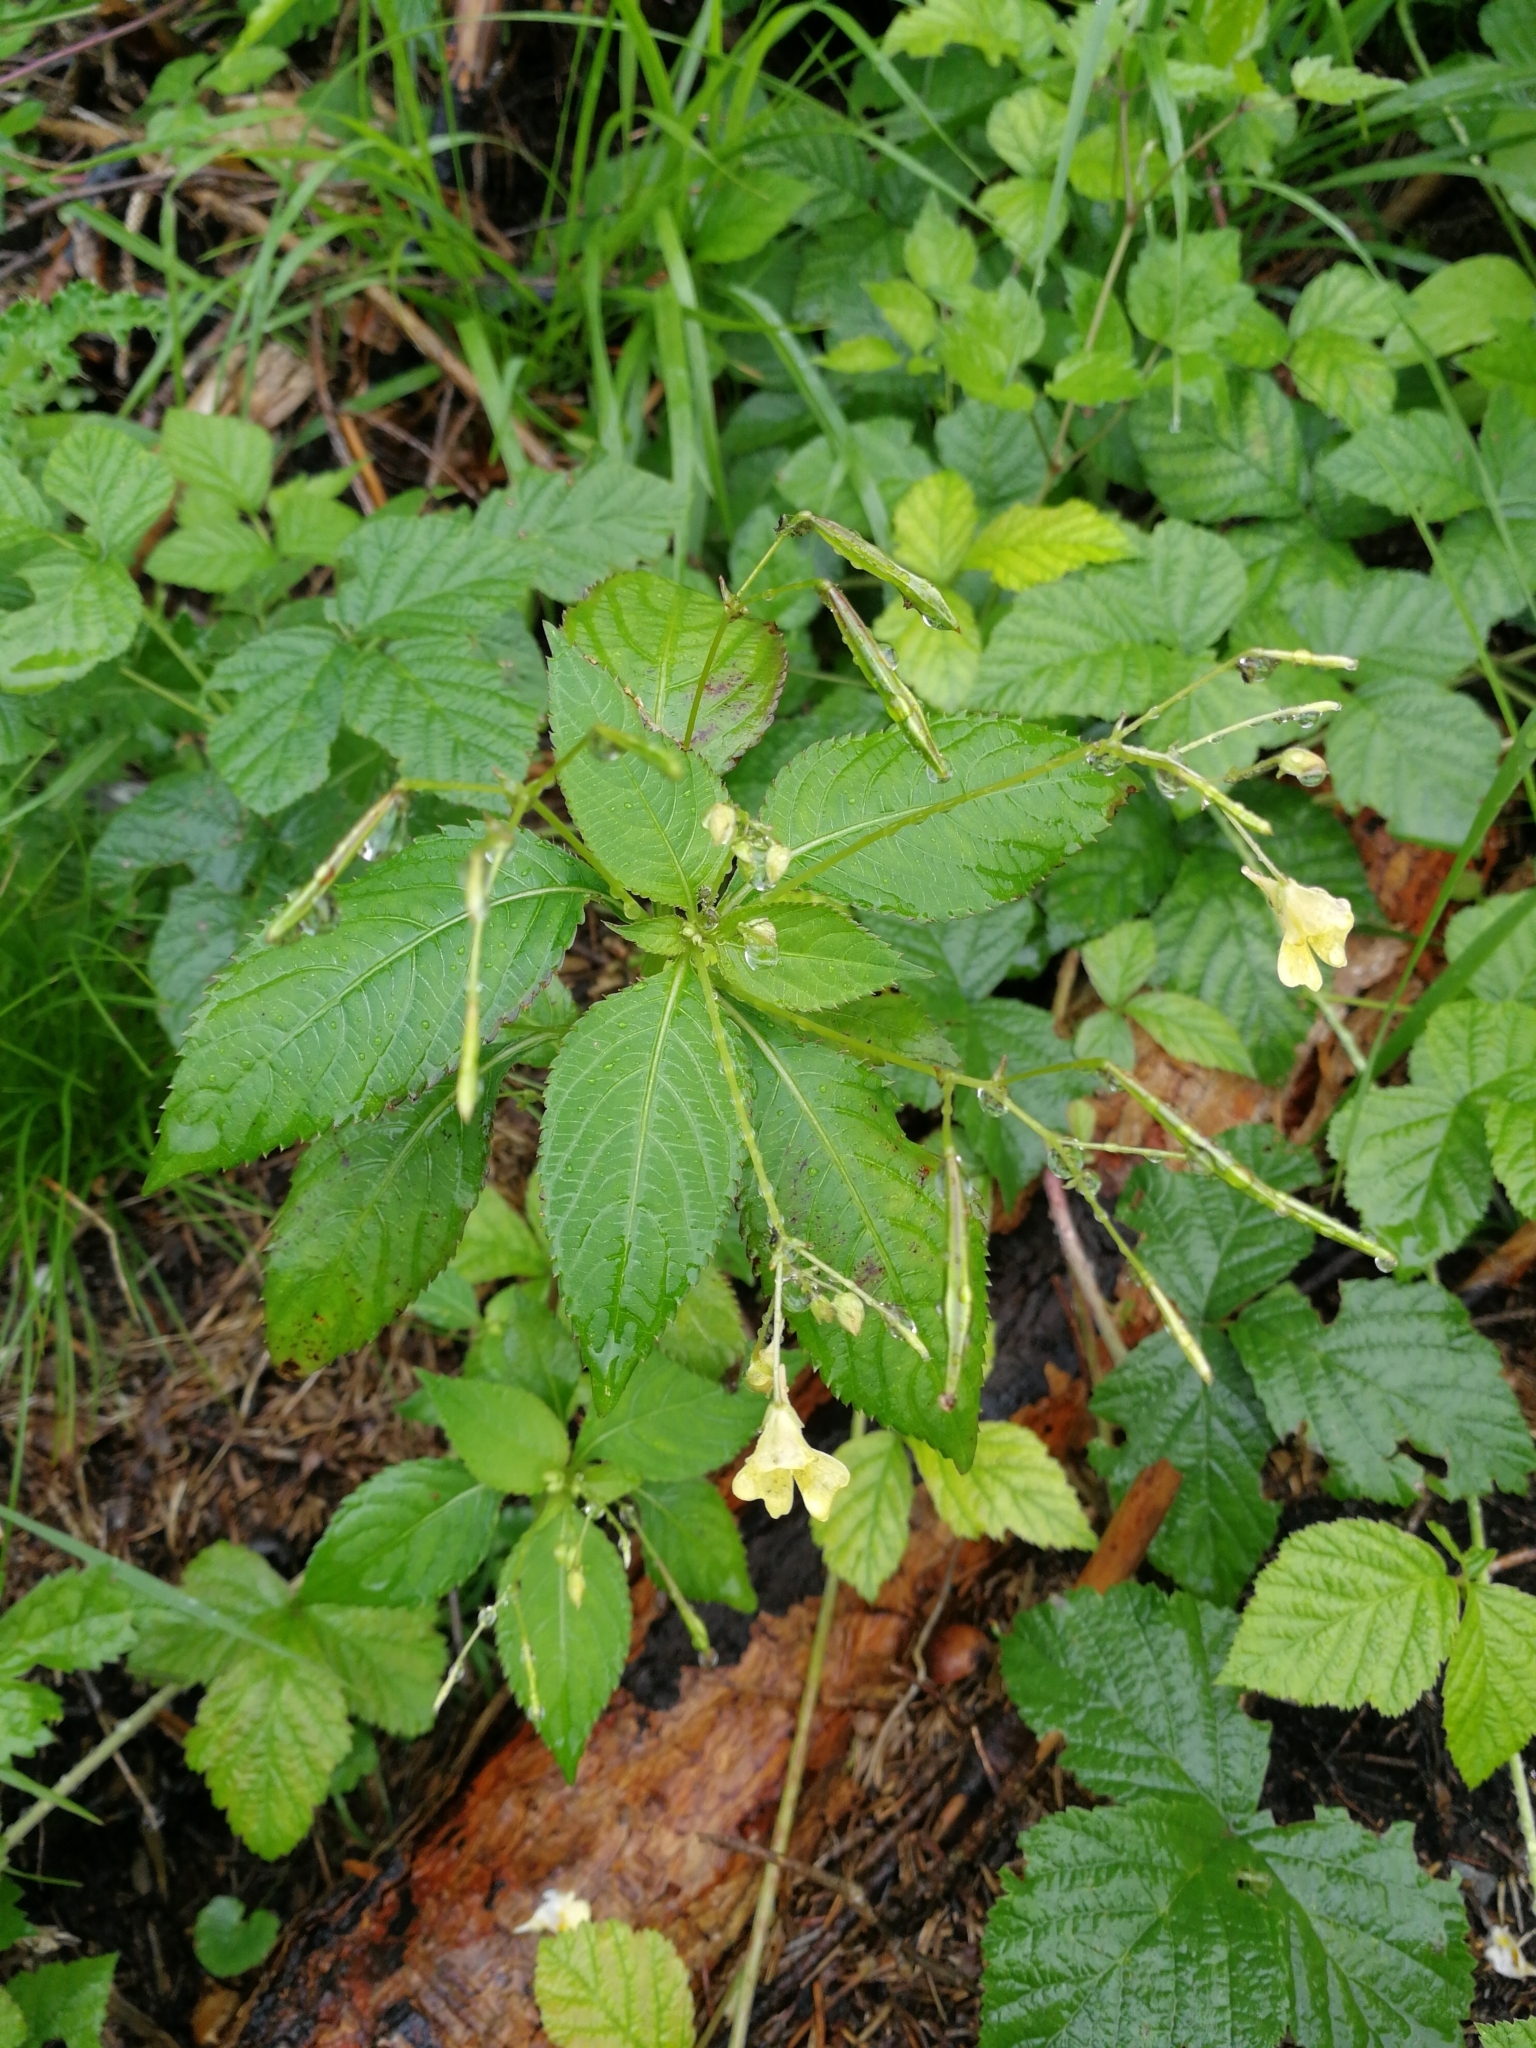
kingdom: Plantae
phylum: Tracheophyta
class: Magnoliopsida
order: Ericales
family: Balsaminaceae
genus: Impatiens
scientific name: Impatiens parviflora
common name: Small balsam
